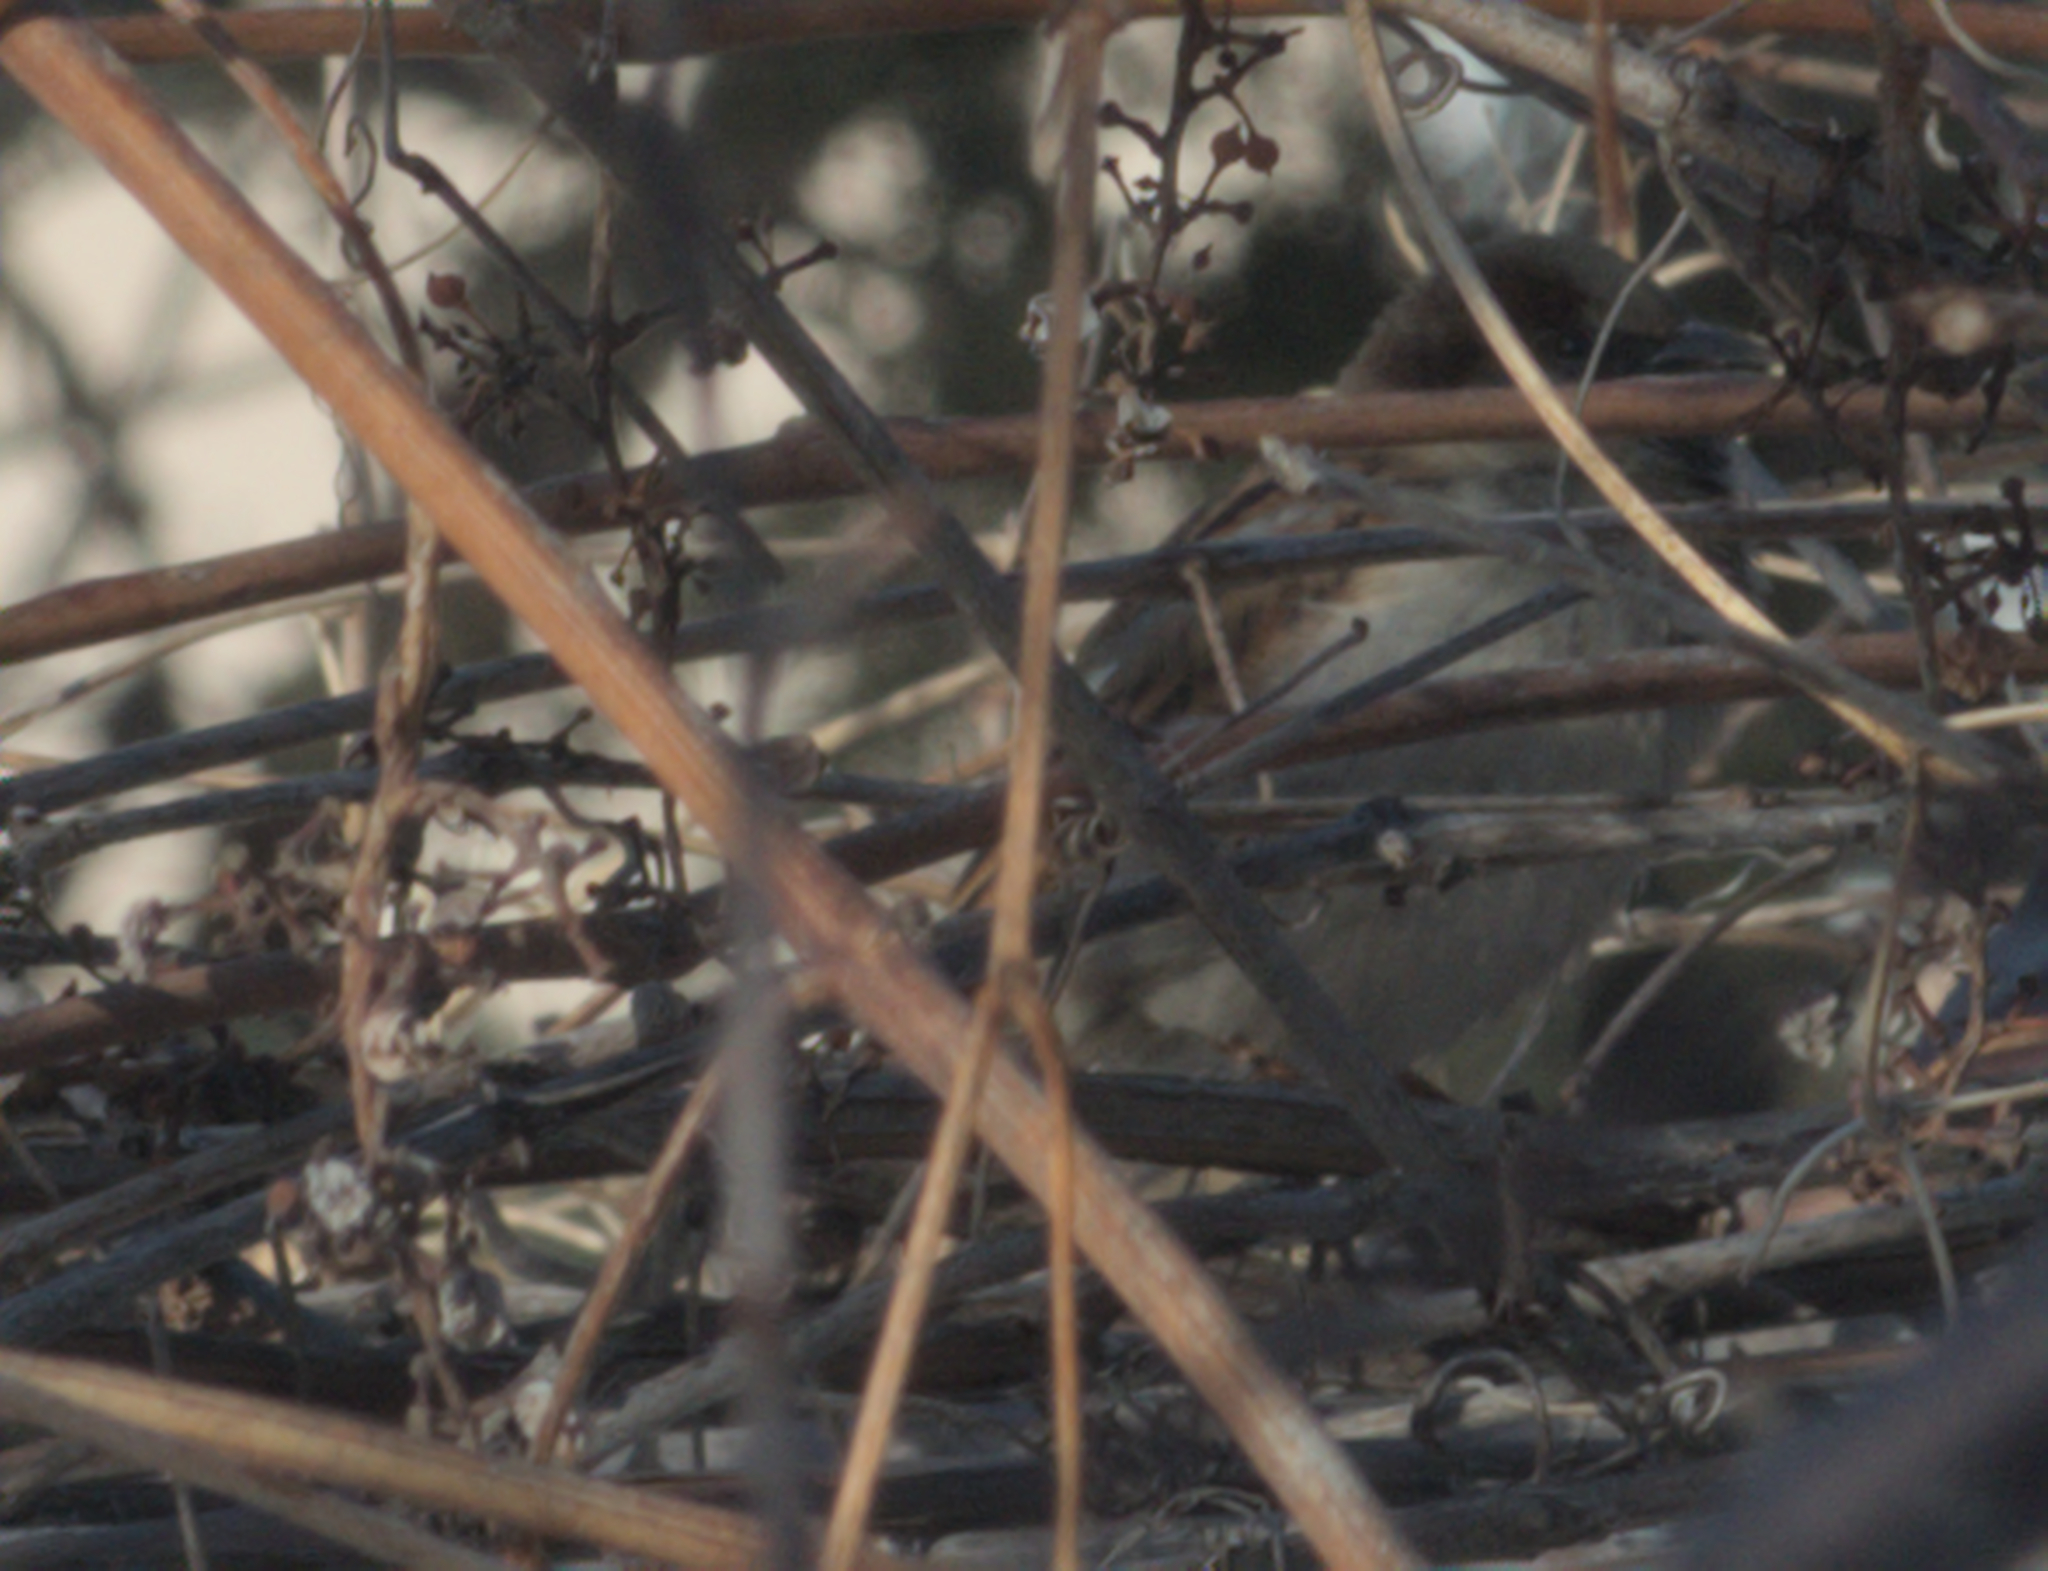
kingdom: Animalia
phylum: Chordata
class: Aves
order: Passeriformes
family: Passeridae
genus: Passer
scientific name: Passer domesticus
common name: House sparrow
